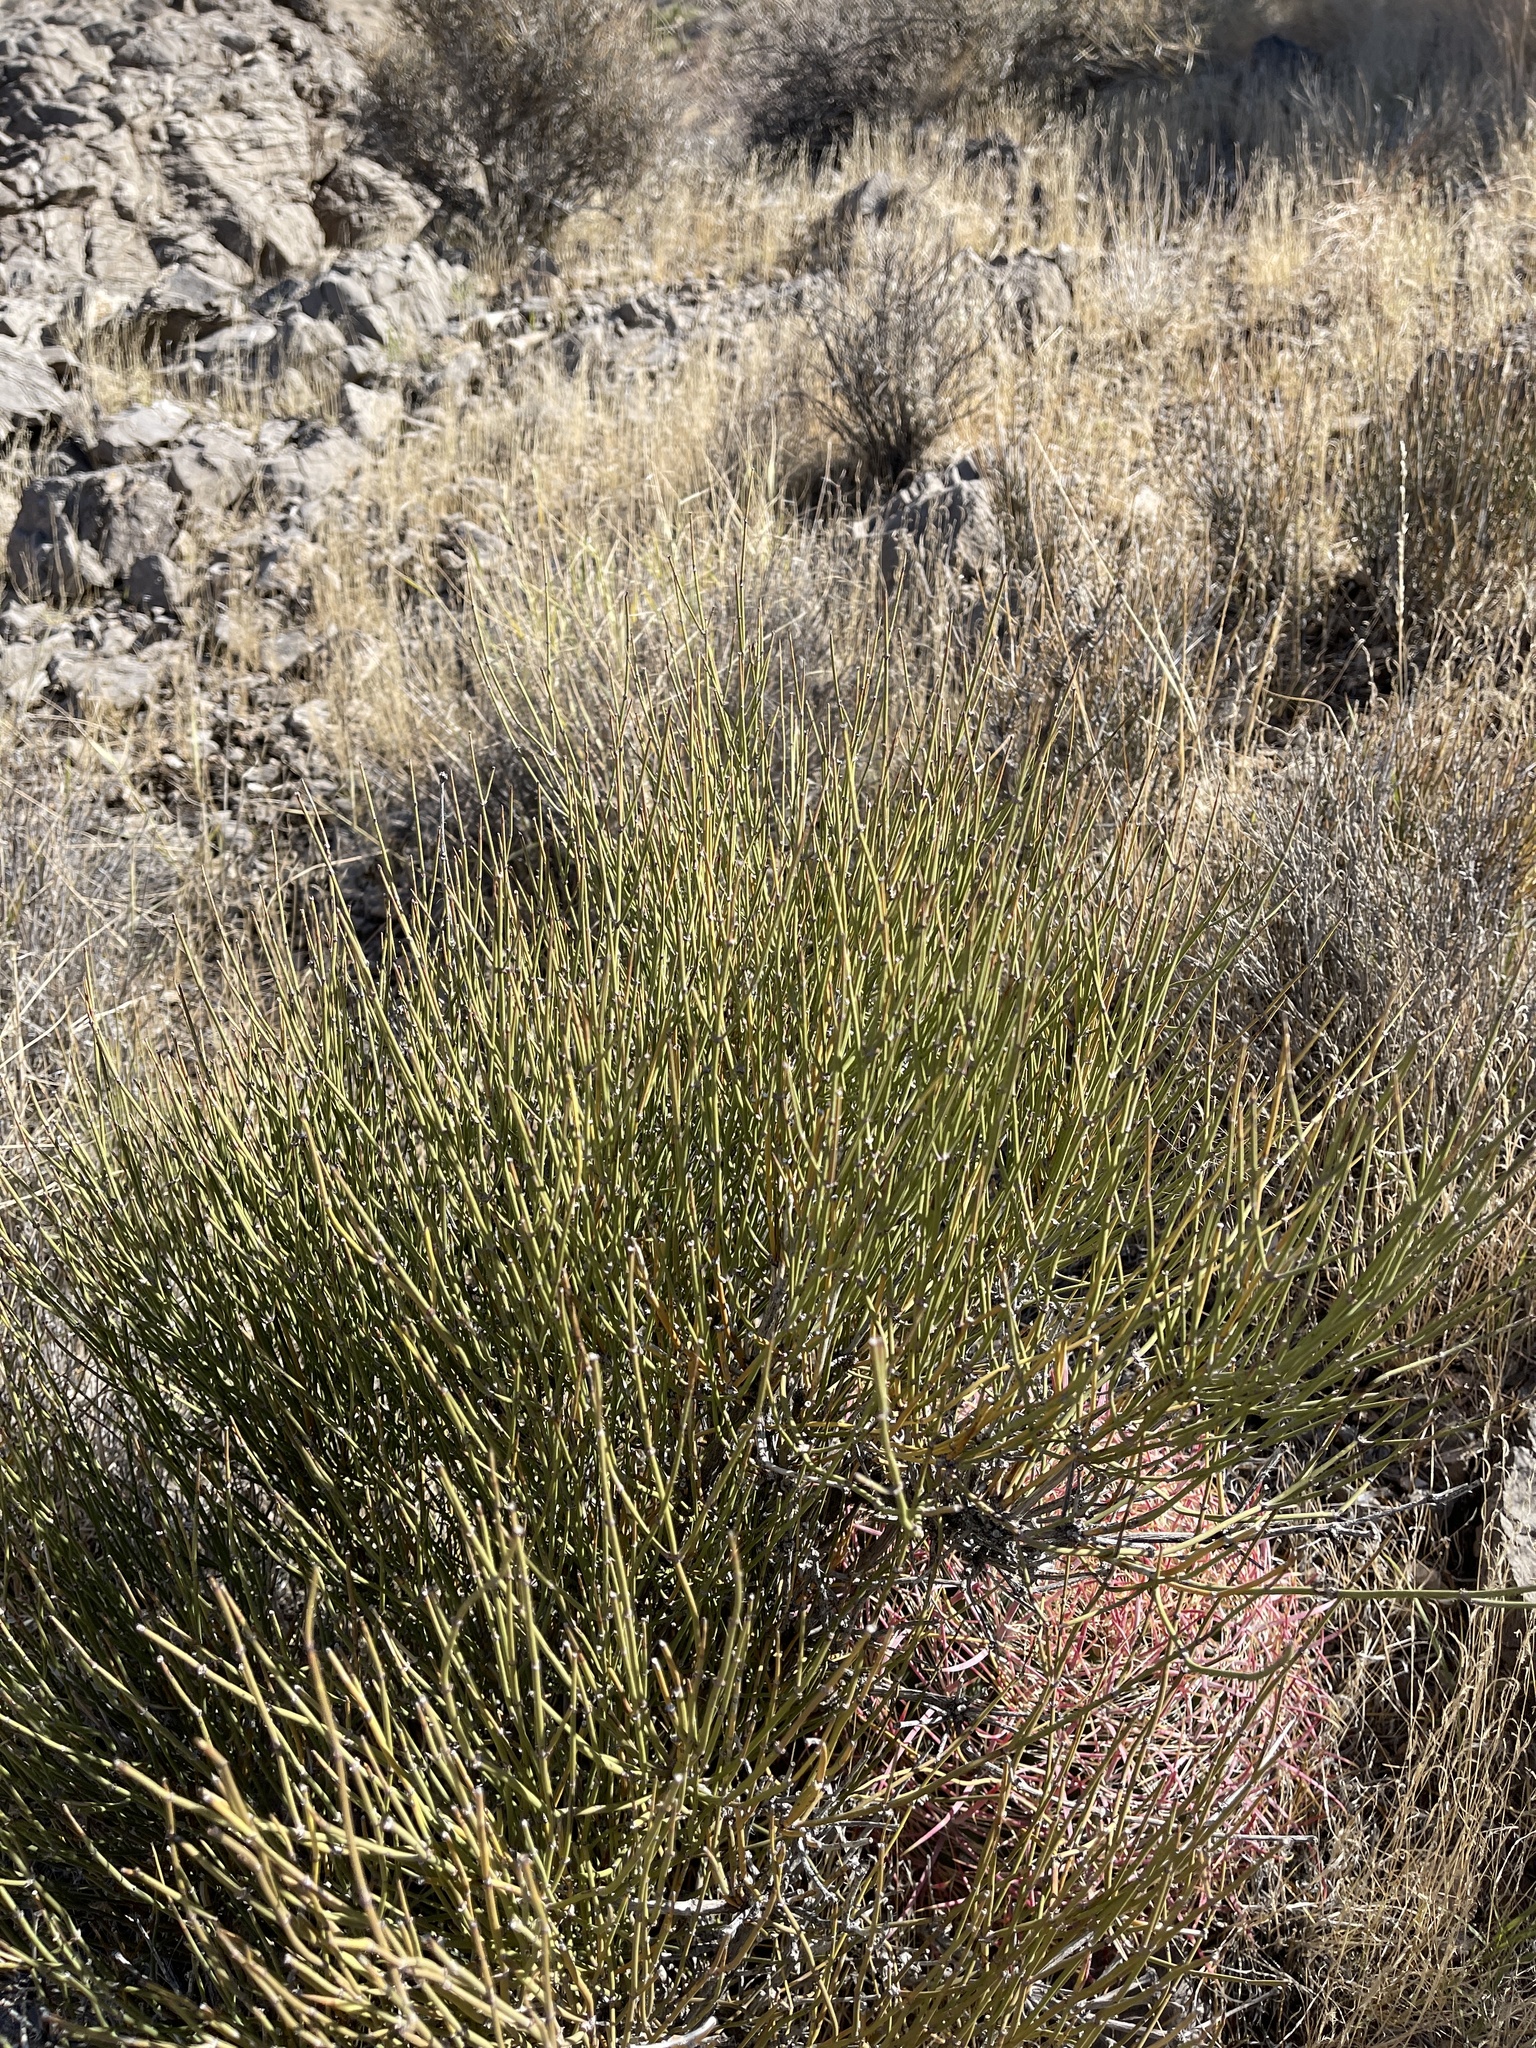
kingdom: Plantae
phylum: Tracheophyta
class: Gnetopsida
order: Ephedrales
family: Ephedraceae
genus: Ephedra
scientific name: Ephedra viridis
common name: Green ephedra
